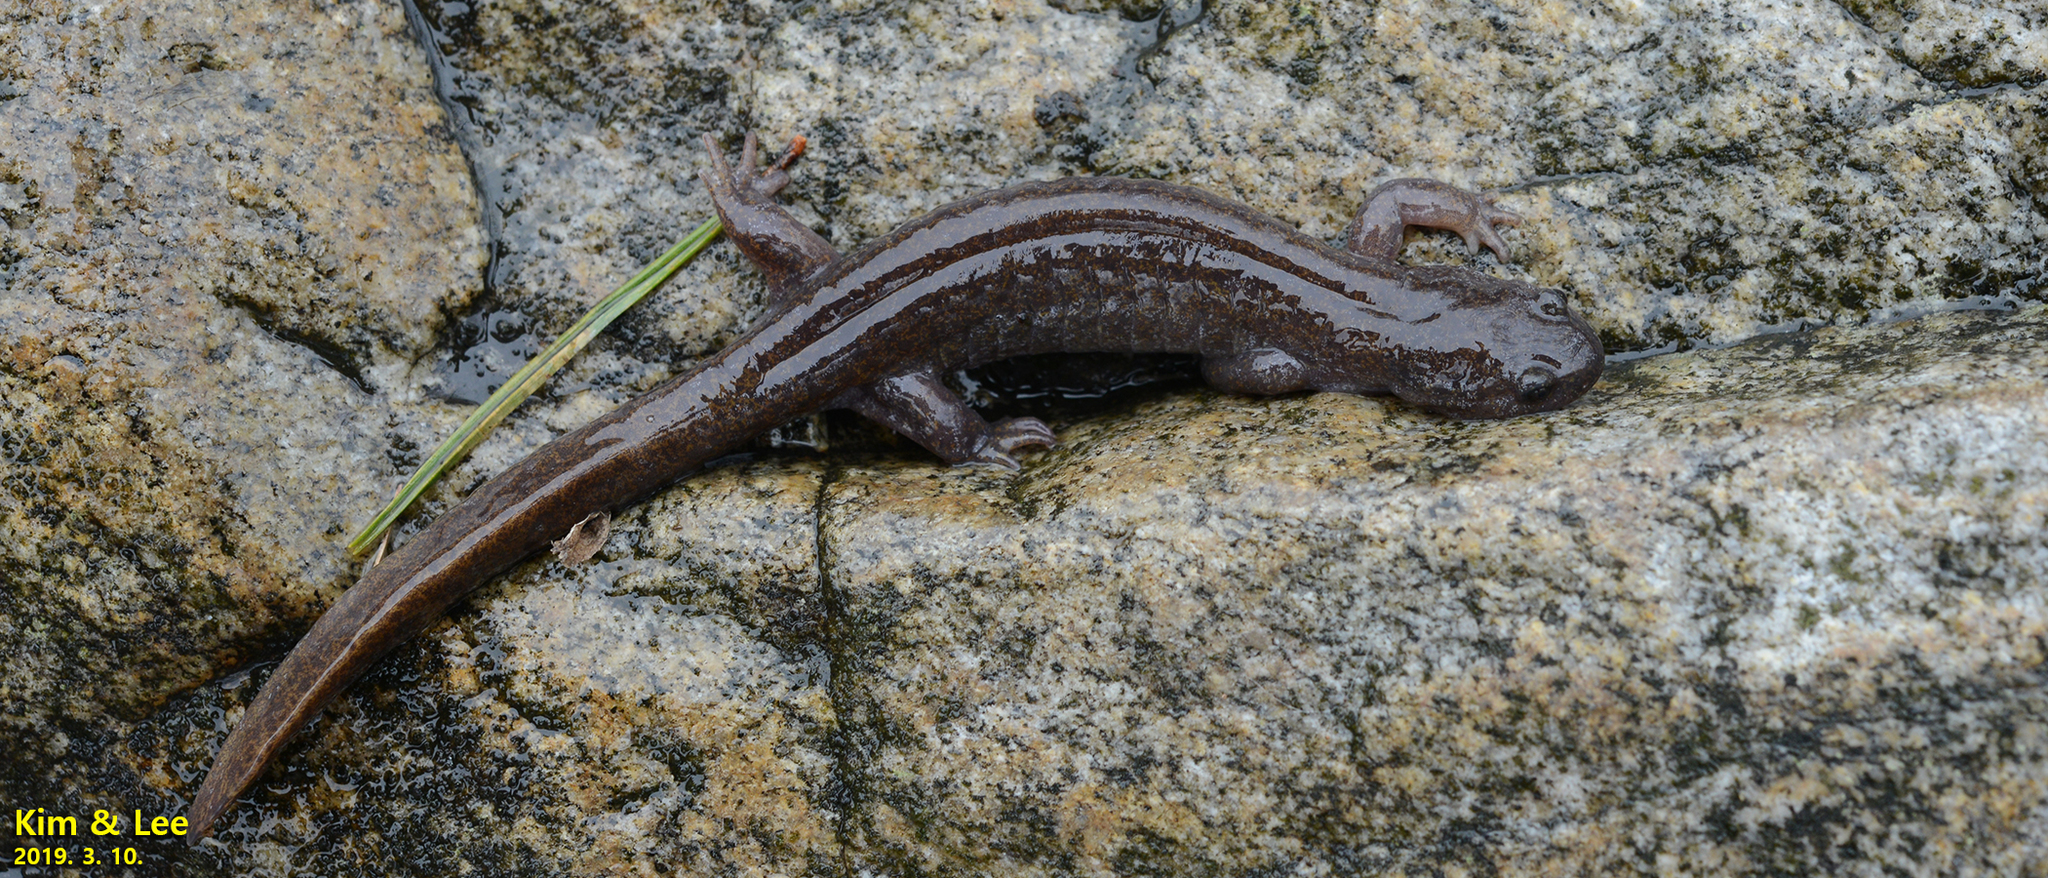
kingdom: Animalia
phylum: Chordata
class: Amphibia
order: Caudata
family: Hynobiidae
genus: Hynobius
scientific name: Hynobius perplicatus
